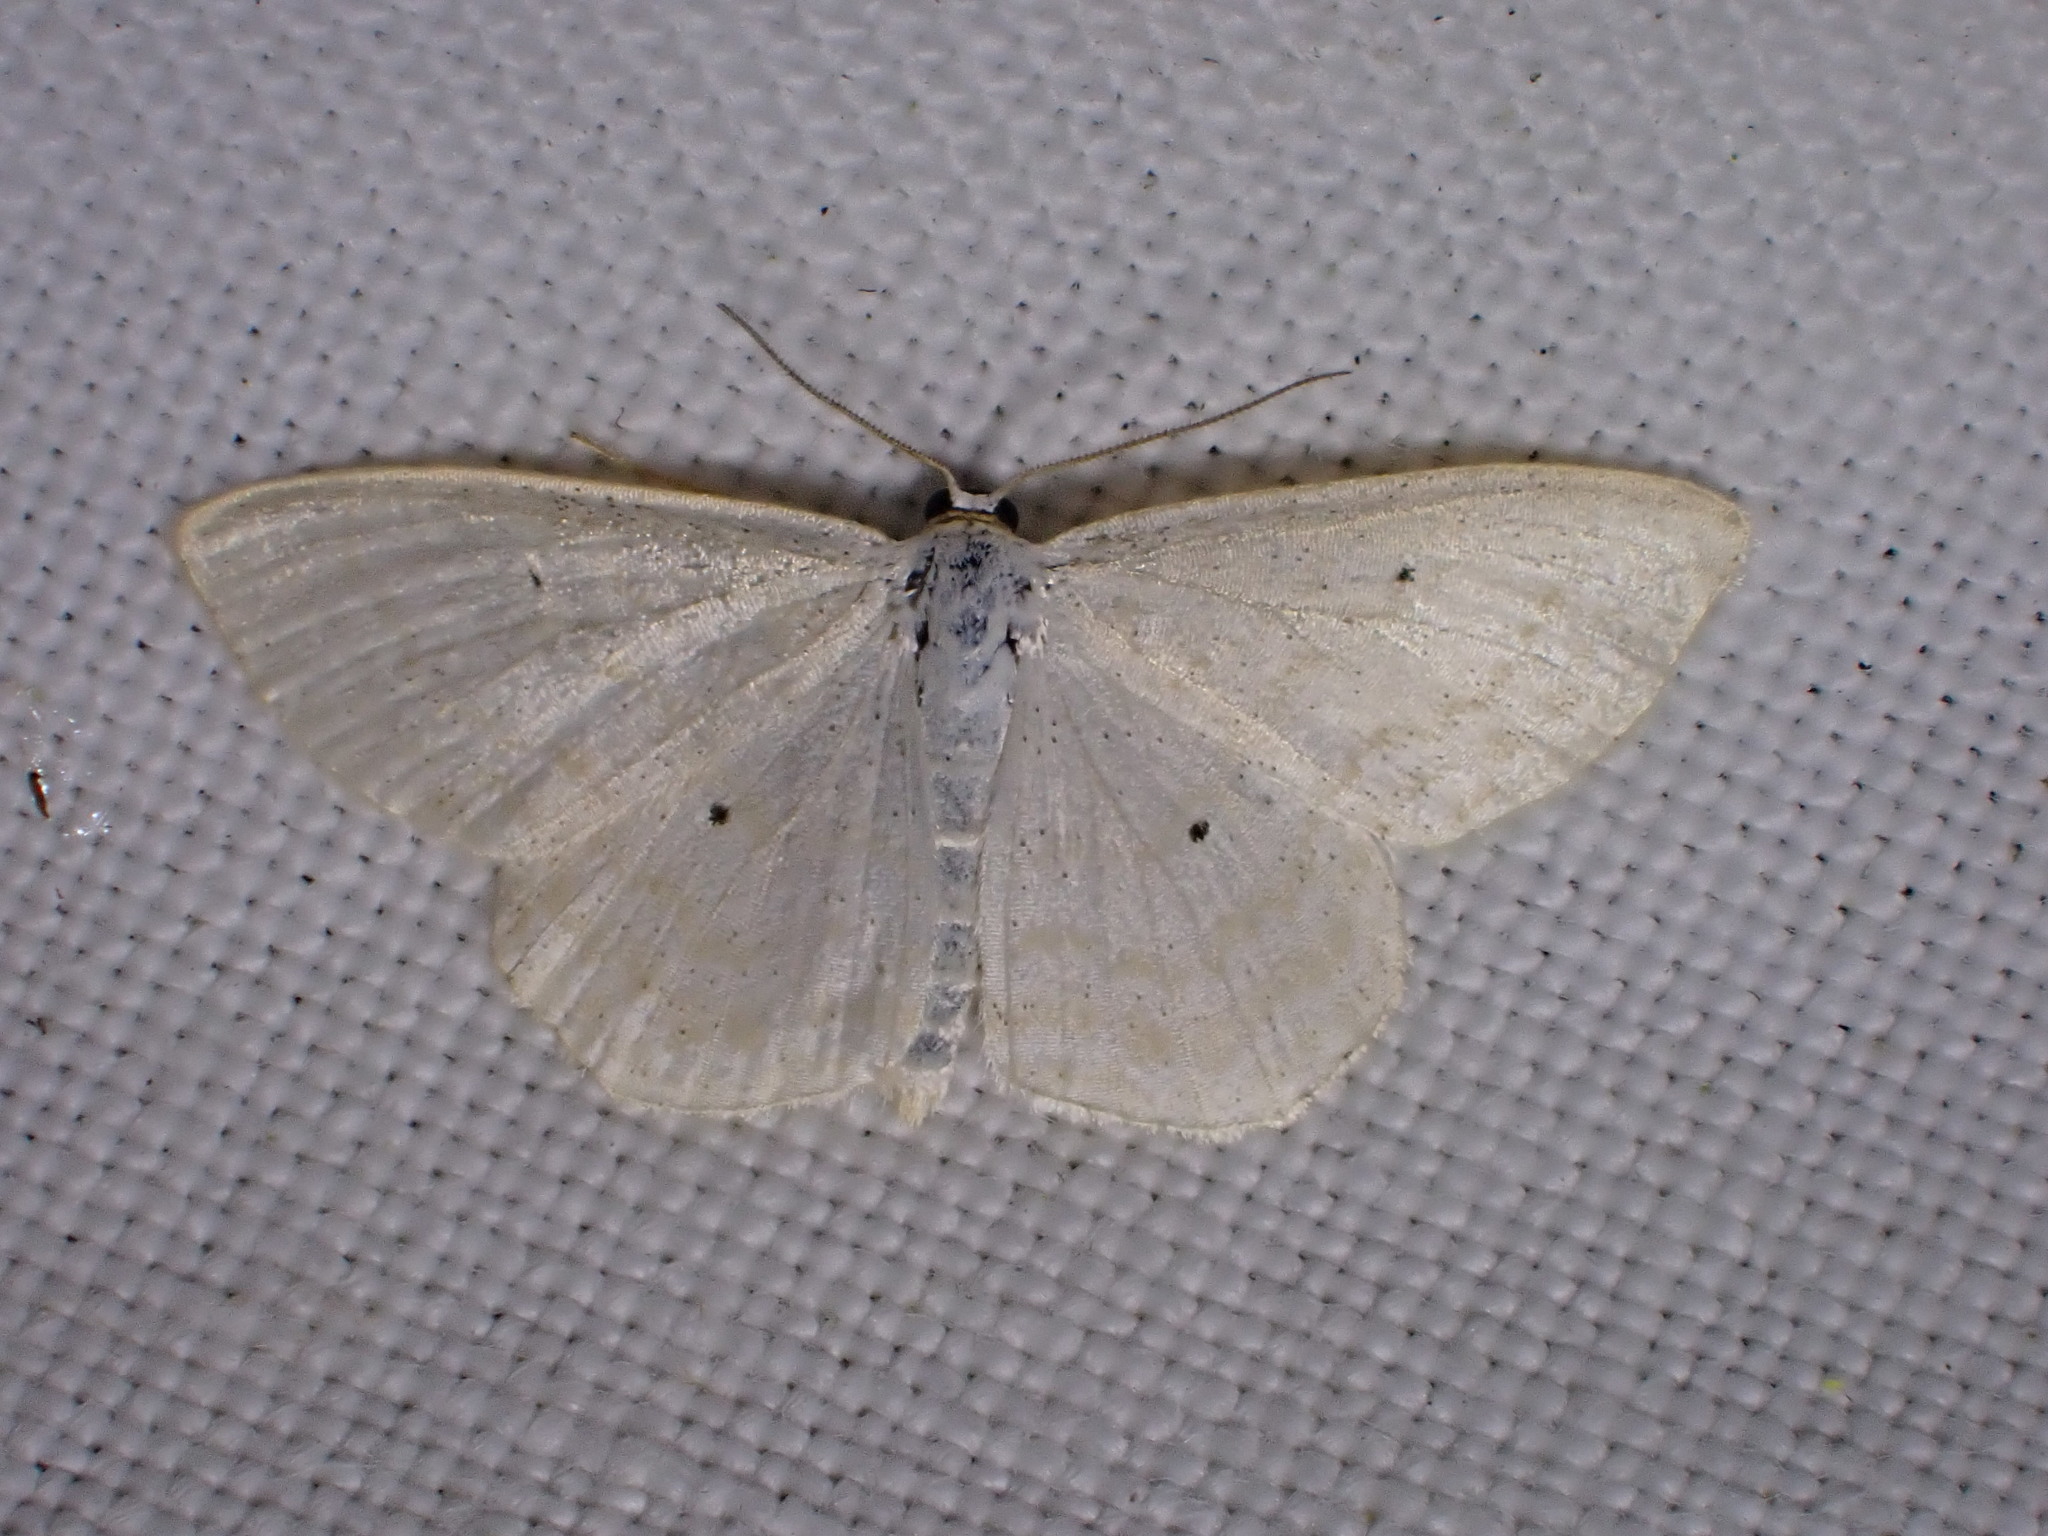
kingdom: Animalia
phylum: Arthropoda
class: Insecta
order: Lepidoptera
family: Geometridae
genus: Scopula
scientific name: Scopula immutata
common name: Lesser cream wave
